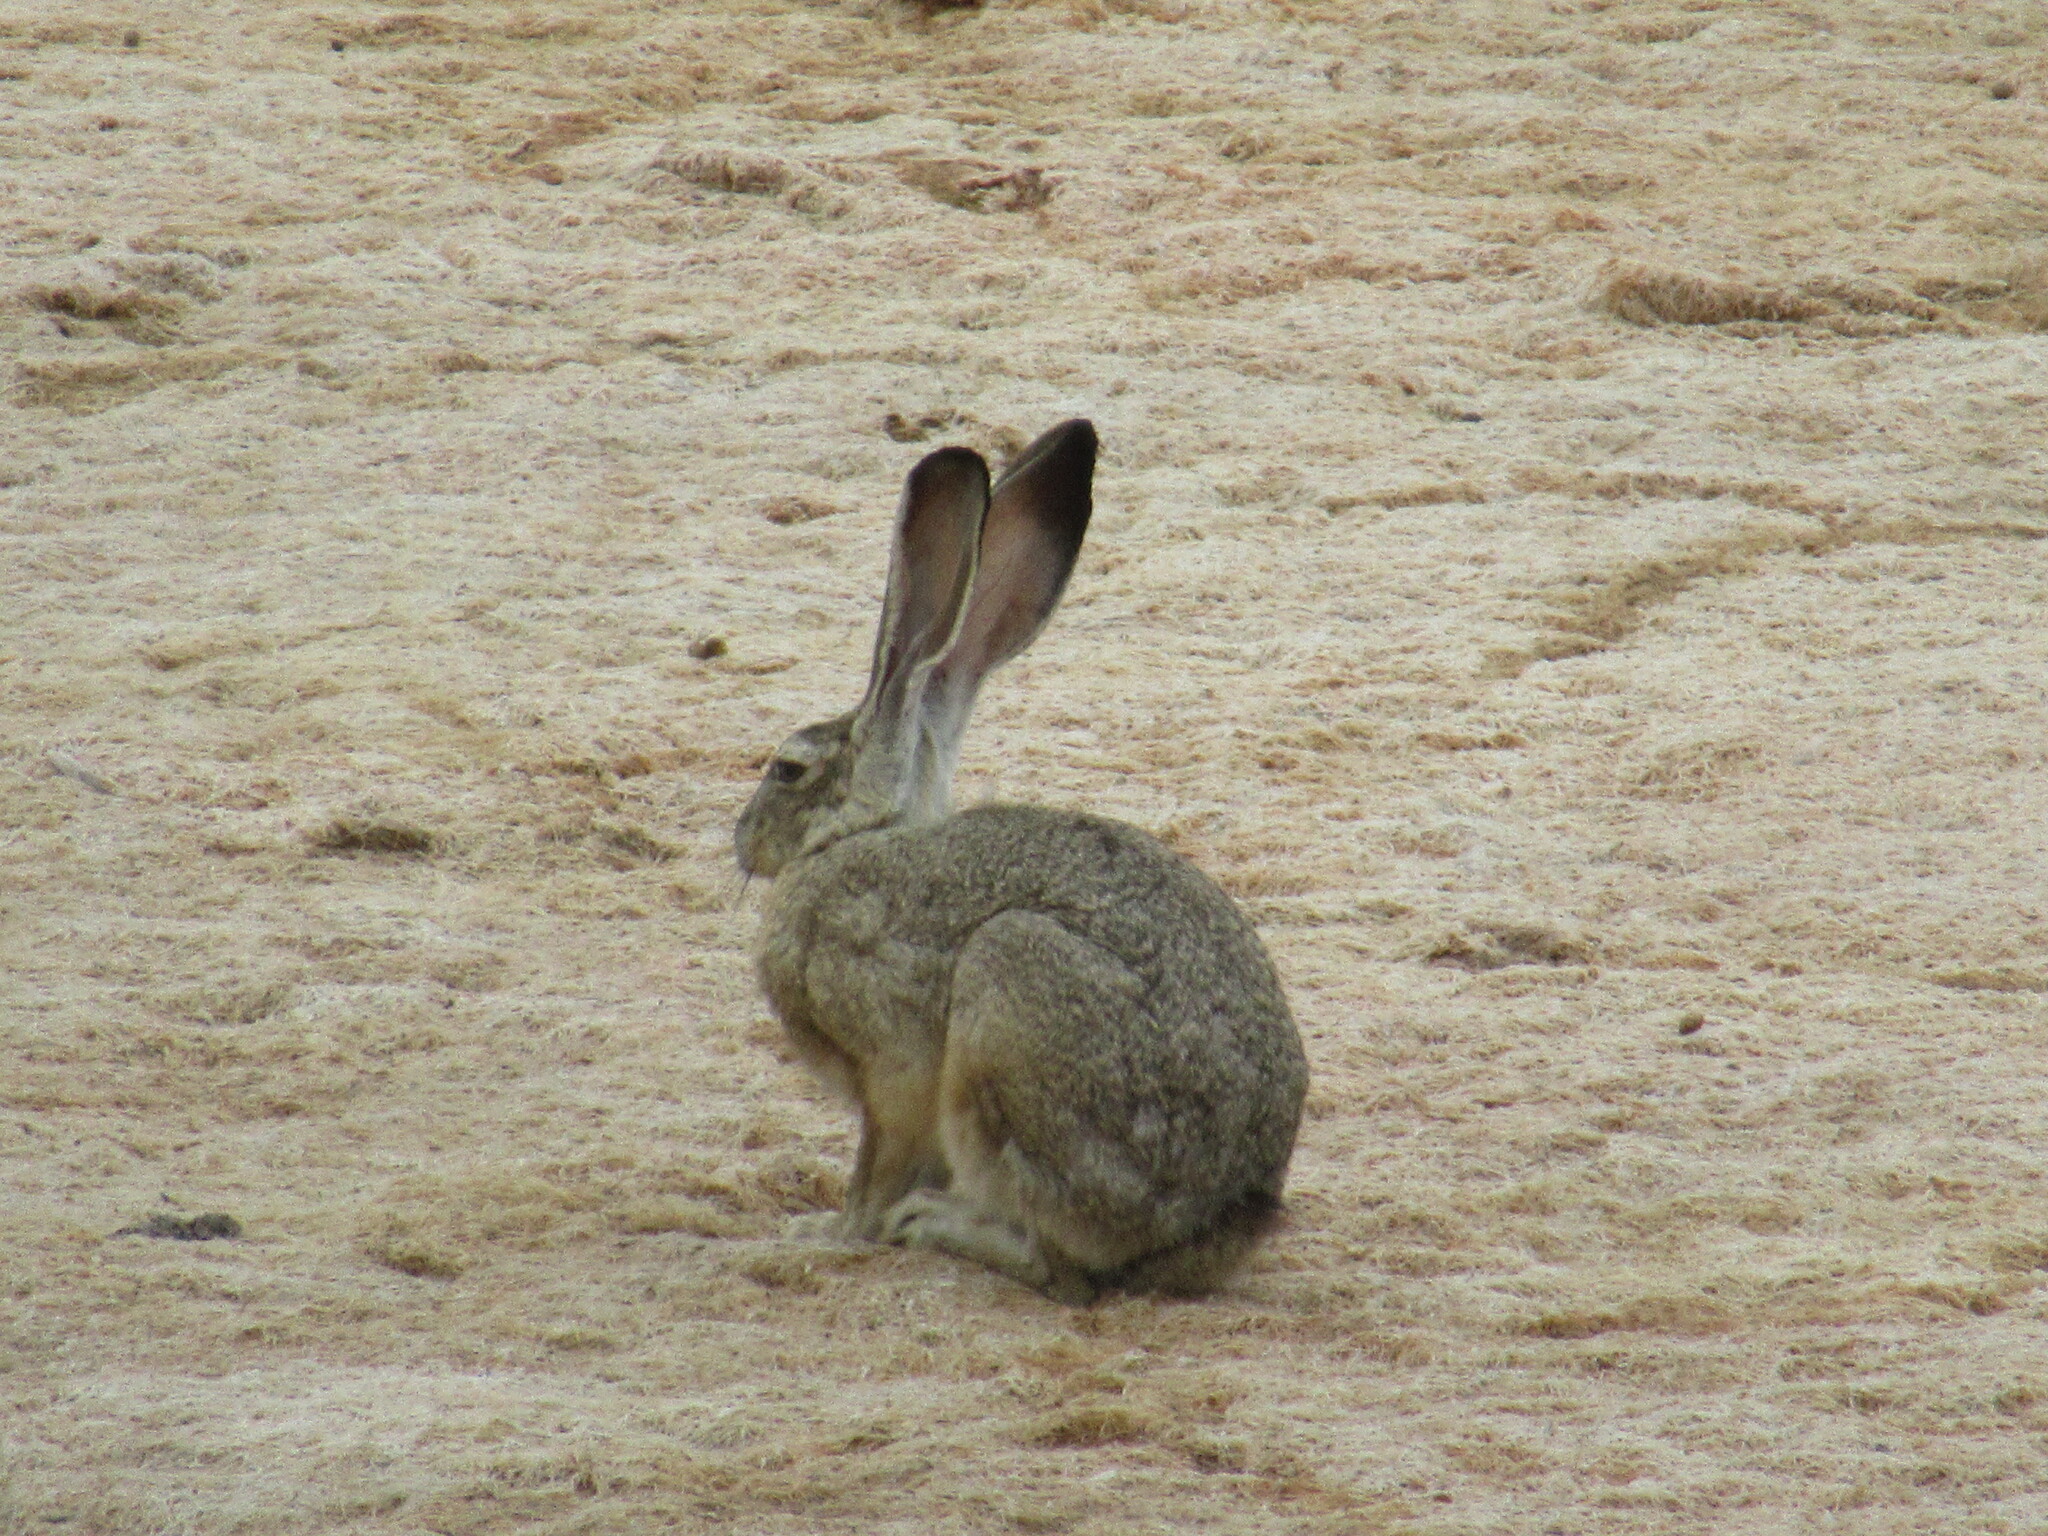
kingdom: Animalia
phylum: Chordata
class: Mammalia
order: Lagomorpha
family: Leporidae
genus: Lepus
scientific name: Lepus californicus
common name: Black-tailed jackrabbit
